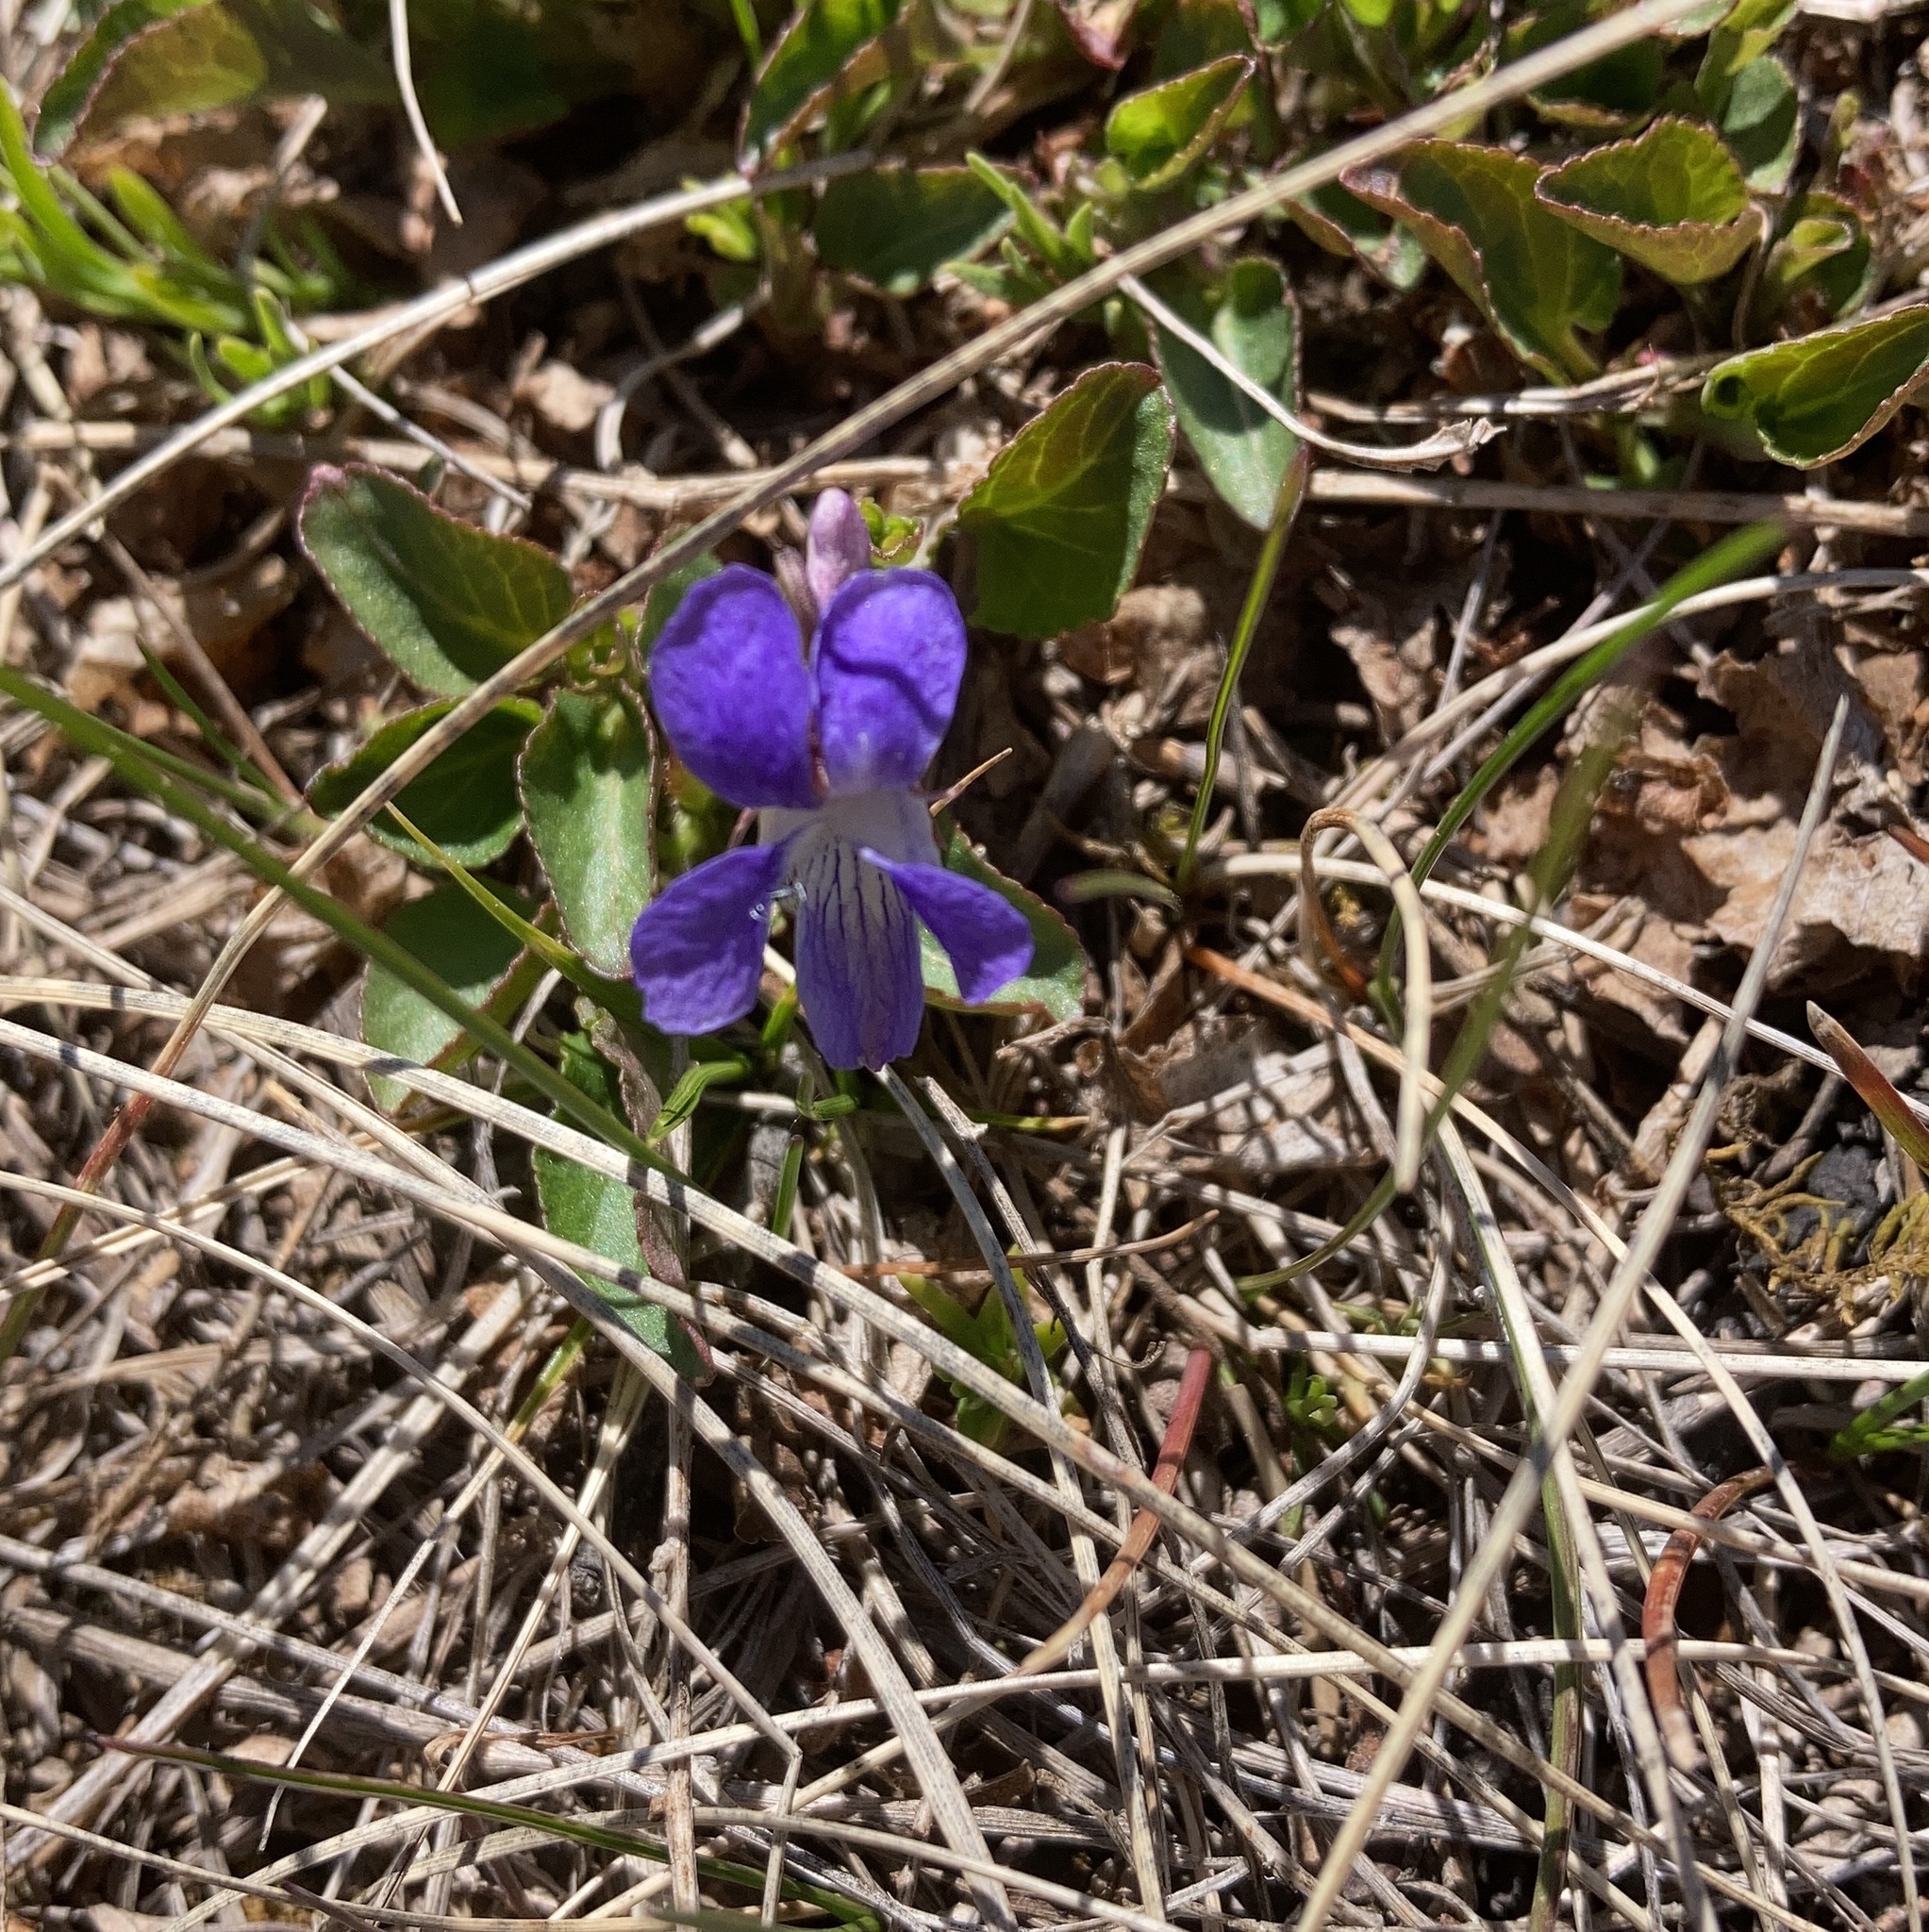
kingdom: Plantae
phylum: Tracheophyta
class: Magnoliopsida
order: Malpighiales
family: Violaceae
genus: Viola
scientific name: Viola adunca
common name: Sand violet
